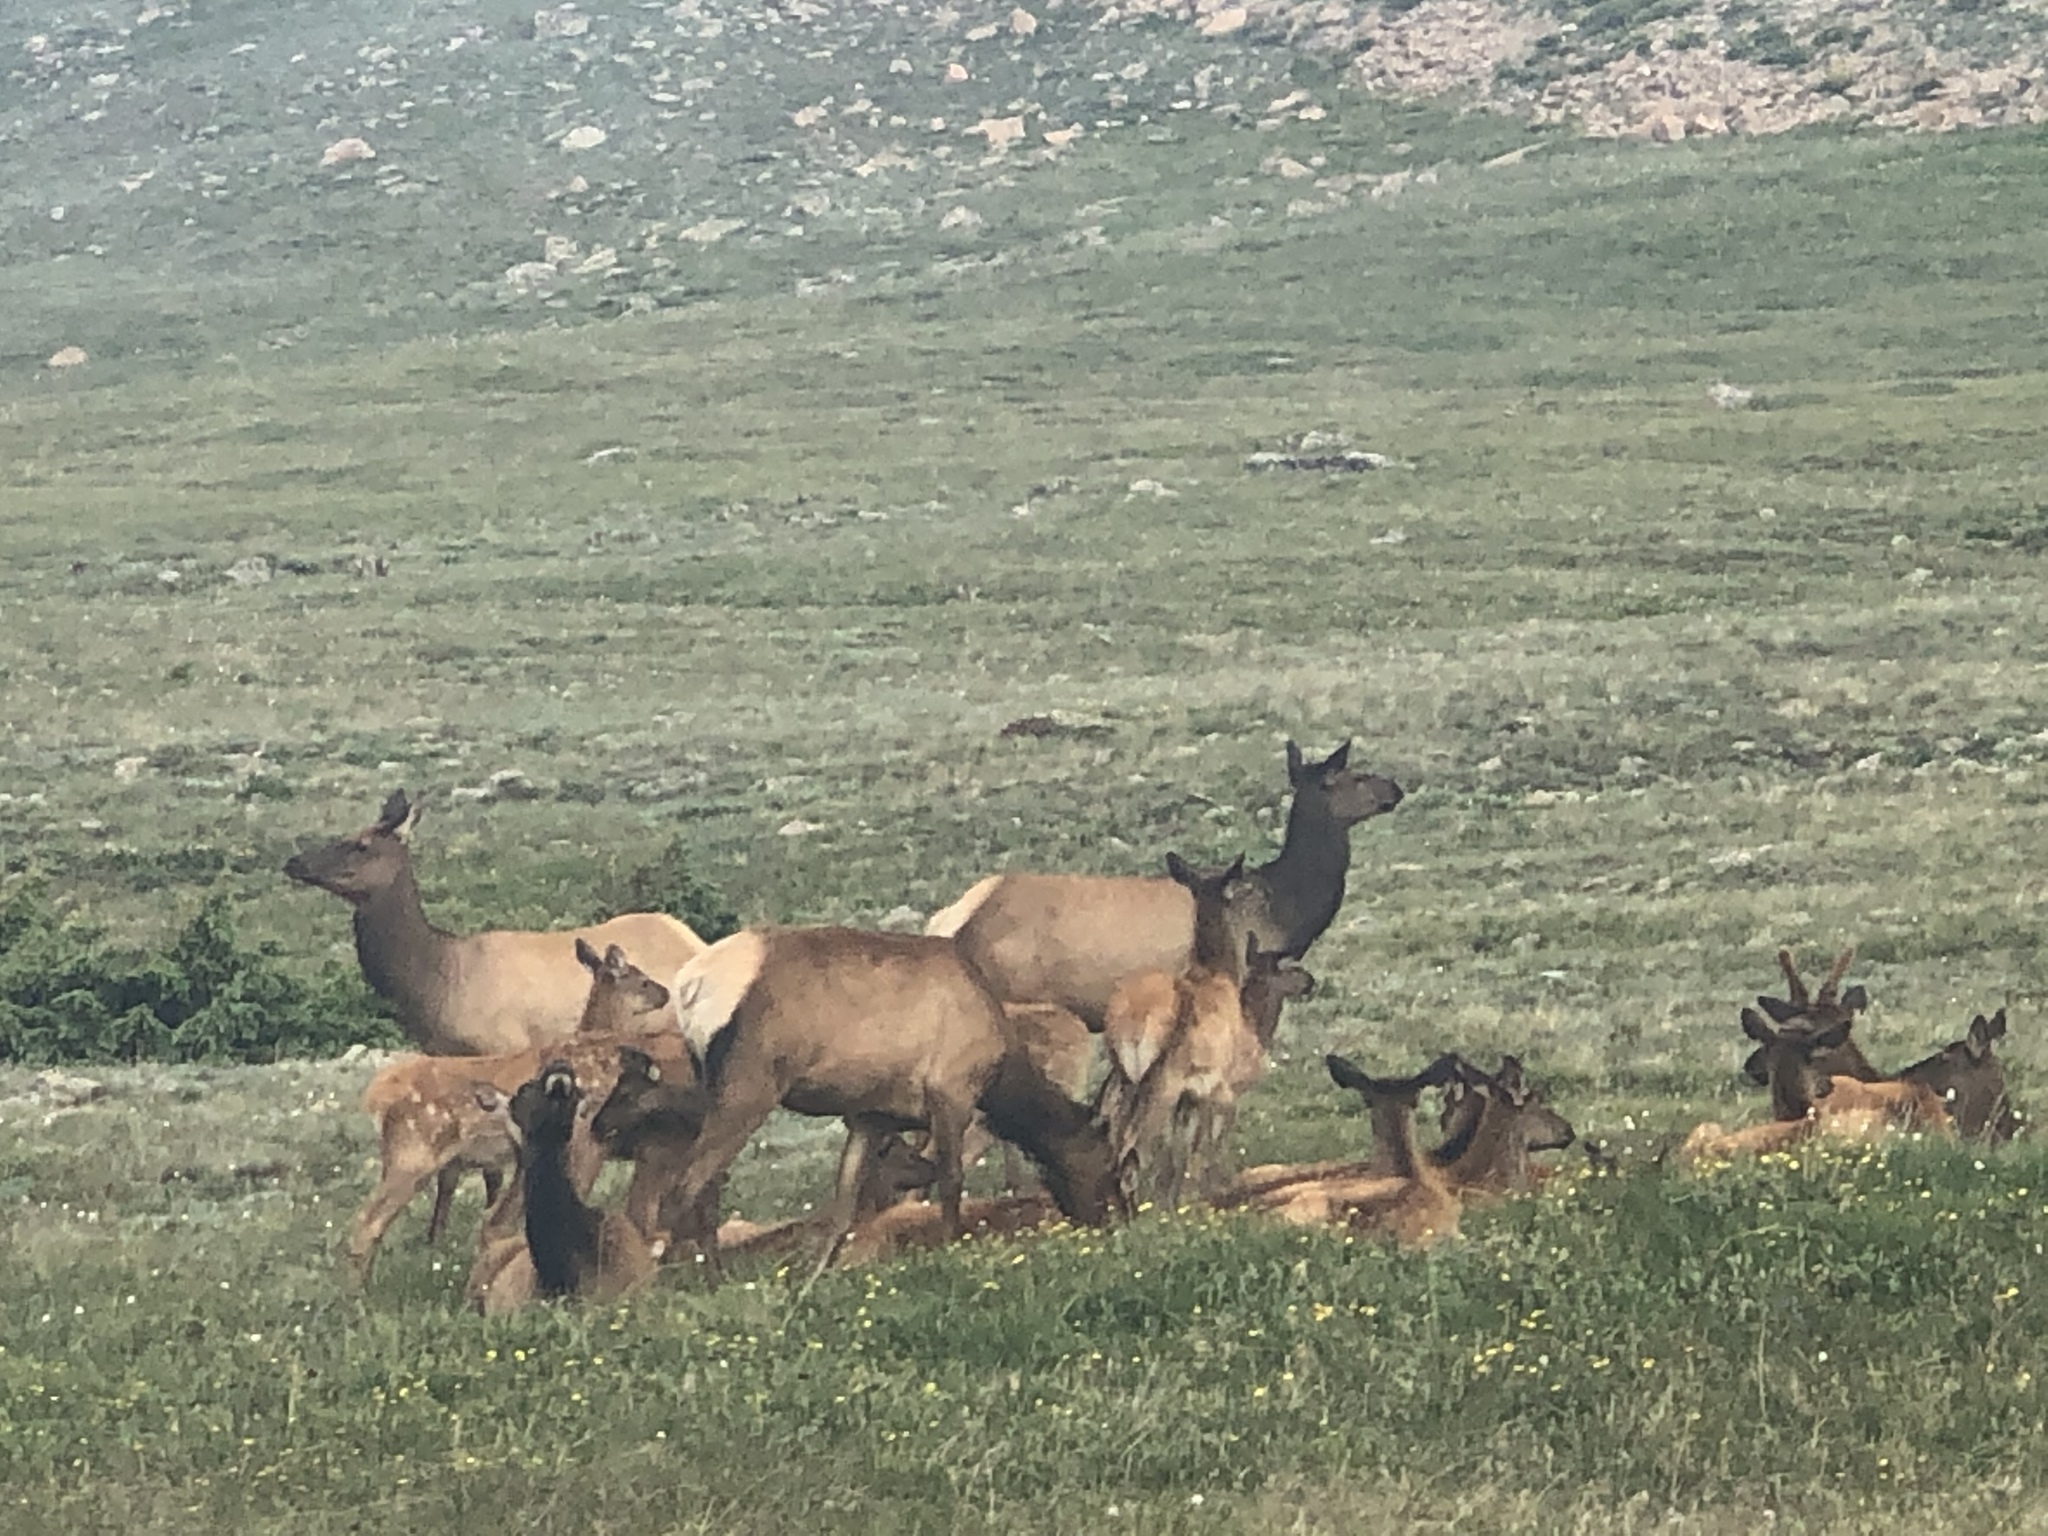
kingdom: Animalia
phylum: Chordata
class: Mammalia
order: Artiodactyla
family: Cervidae
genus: Cervus
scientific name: Cervus elaphus
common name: Red deer
